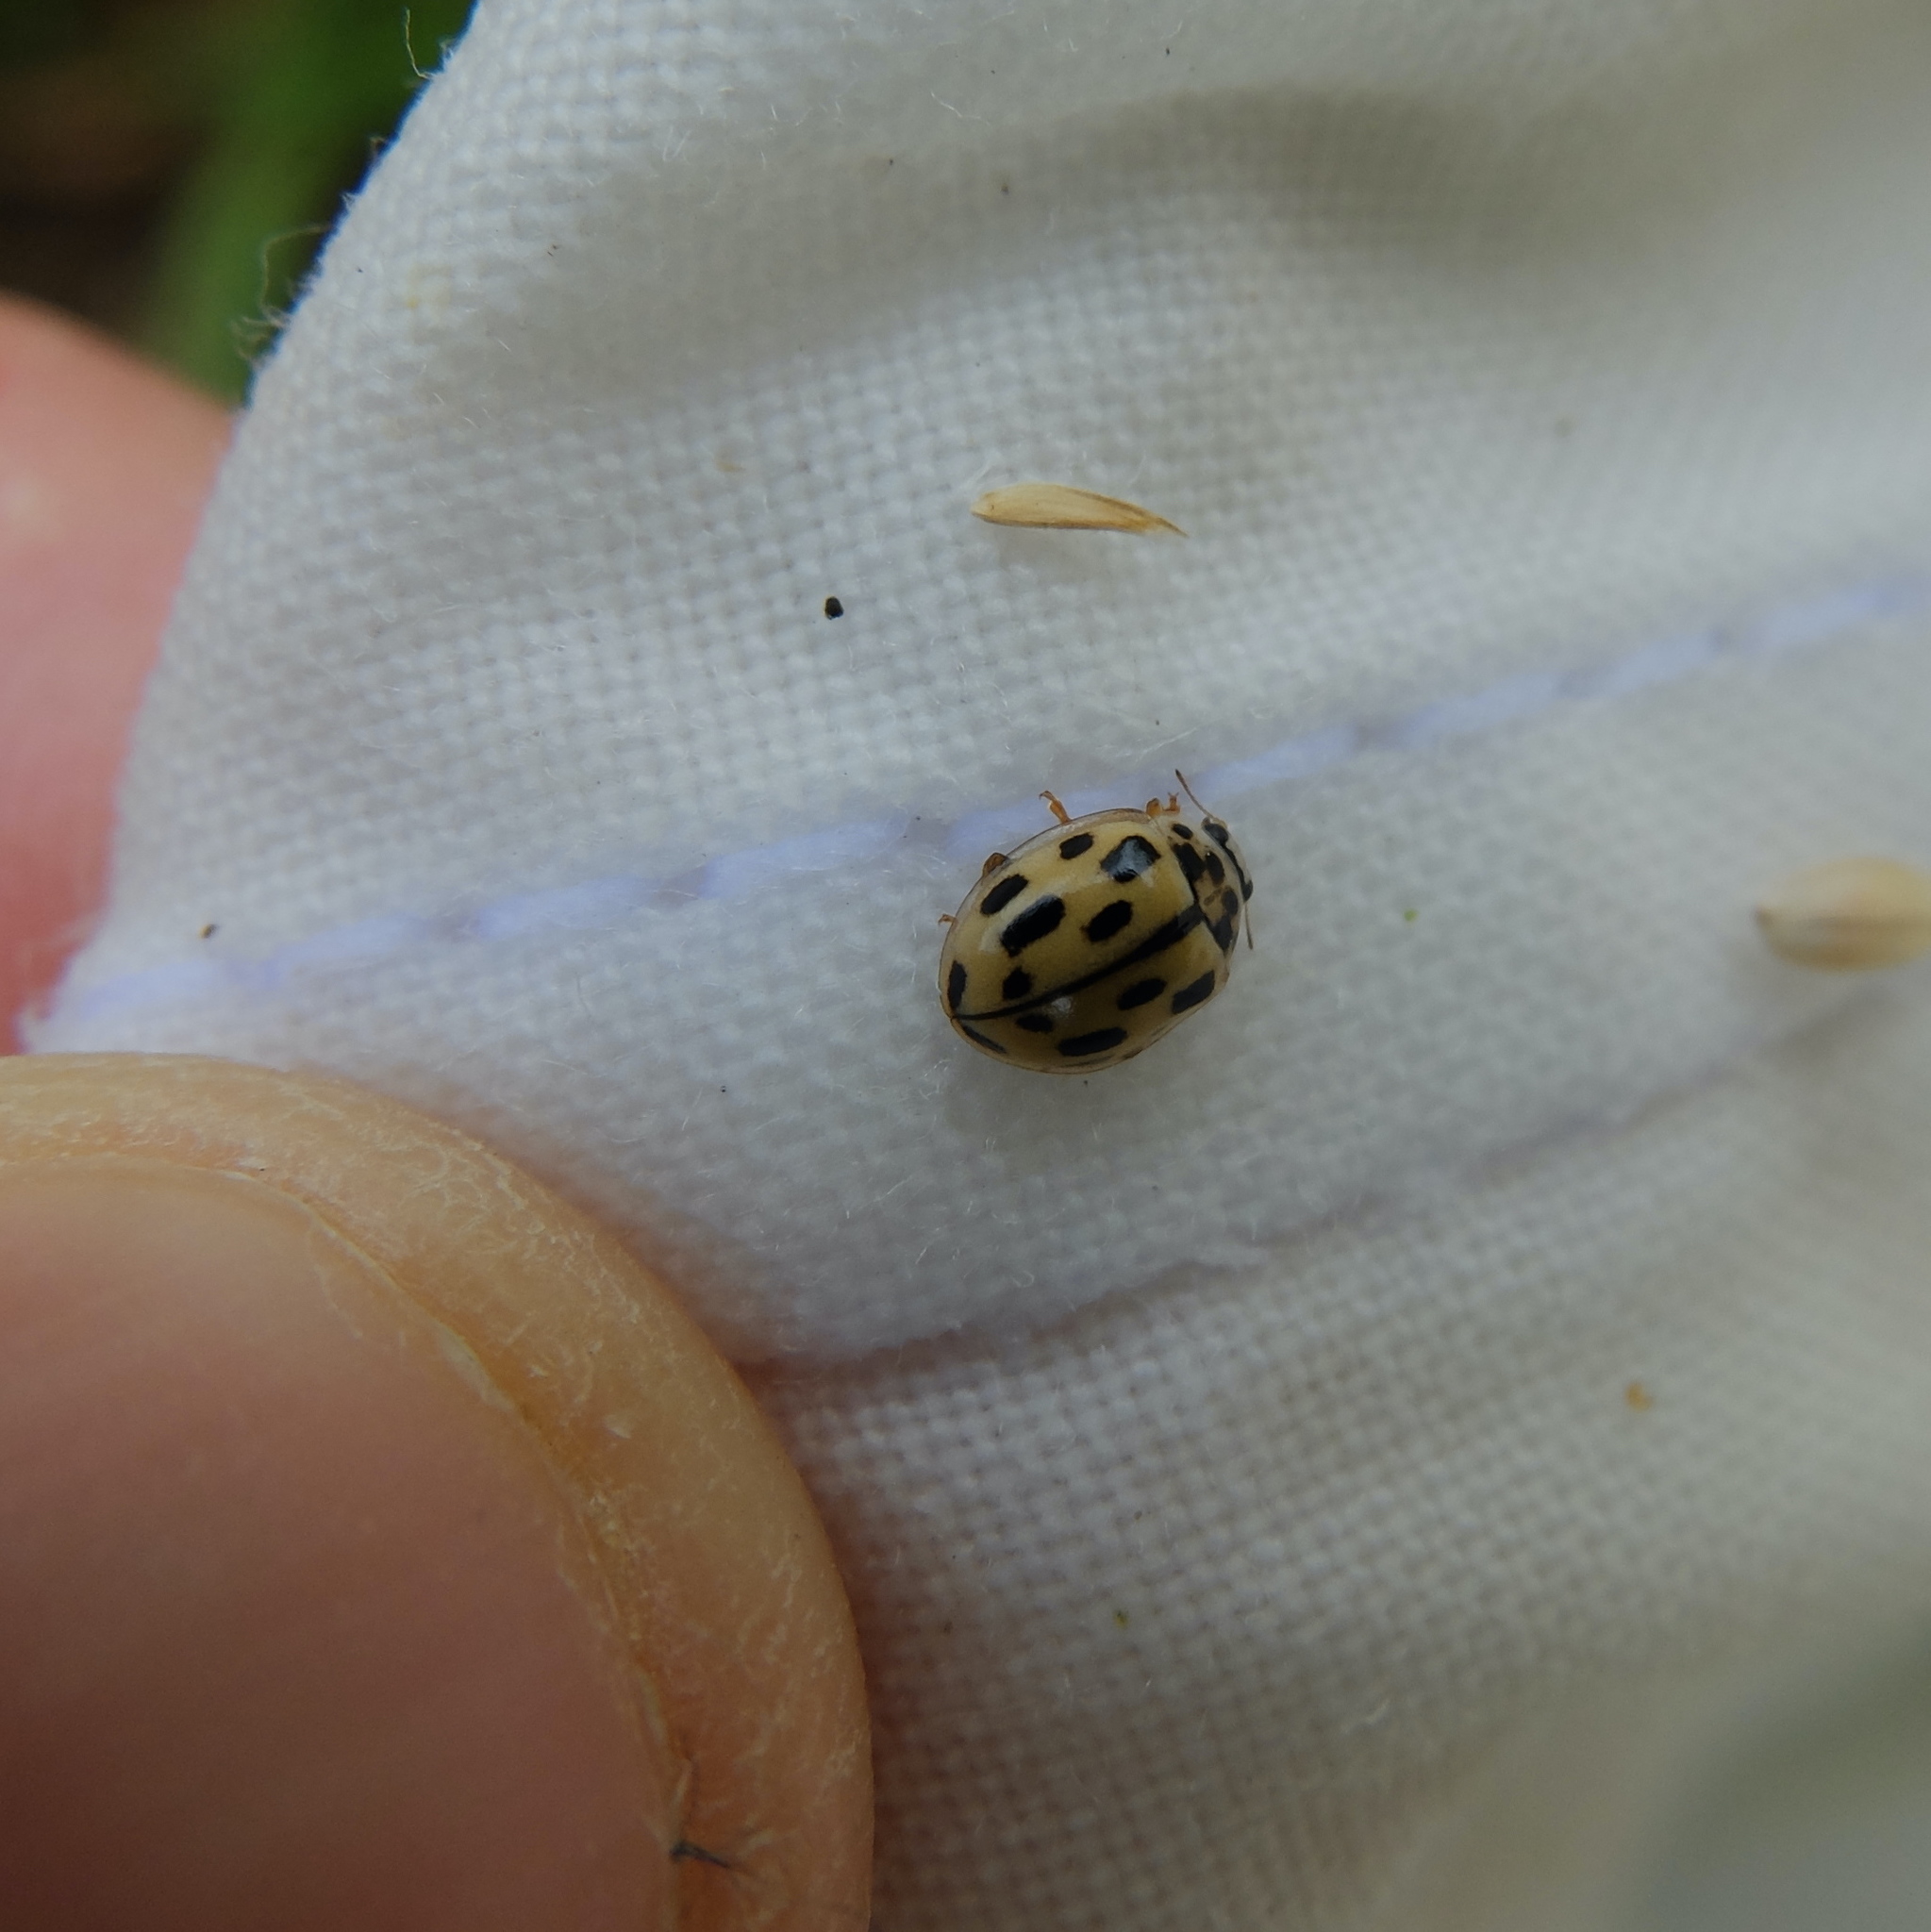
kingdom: Animalia
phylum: Arthropoda
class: Insecta
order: Coleoptera
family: Coccinellidae
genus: Propylaea
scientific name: Propylaea quatuordecimpunctata
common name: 14-spotted ladybird beetle
